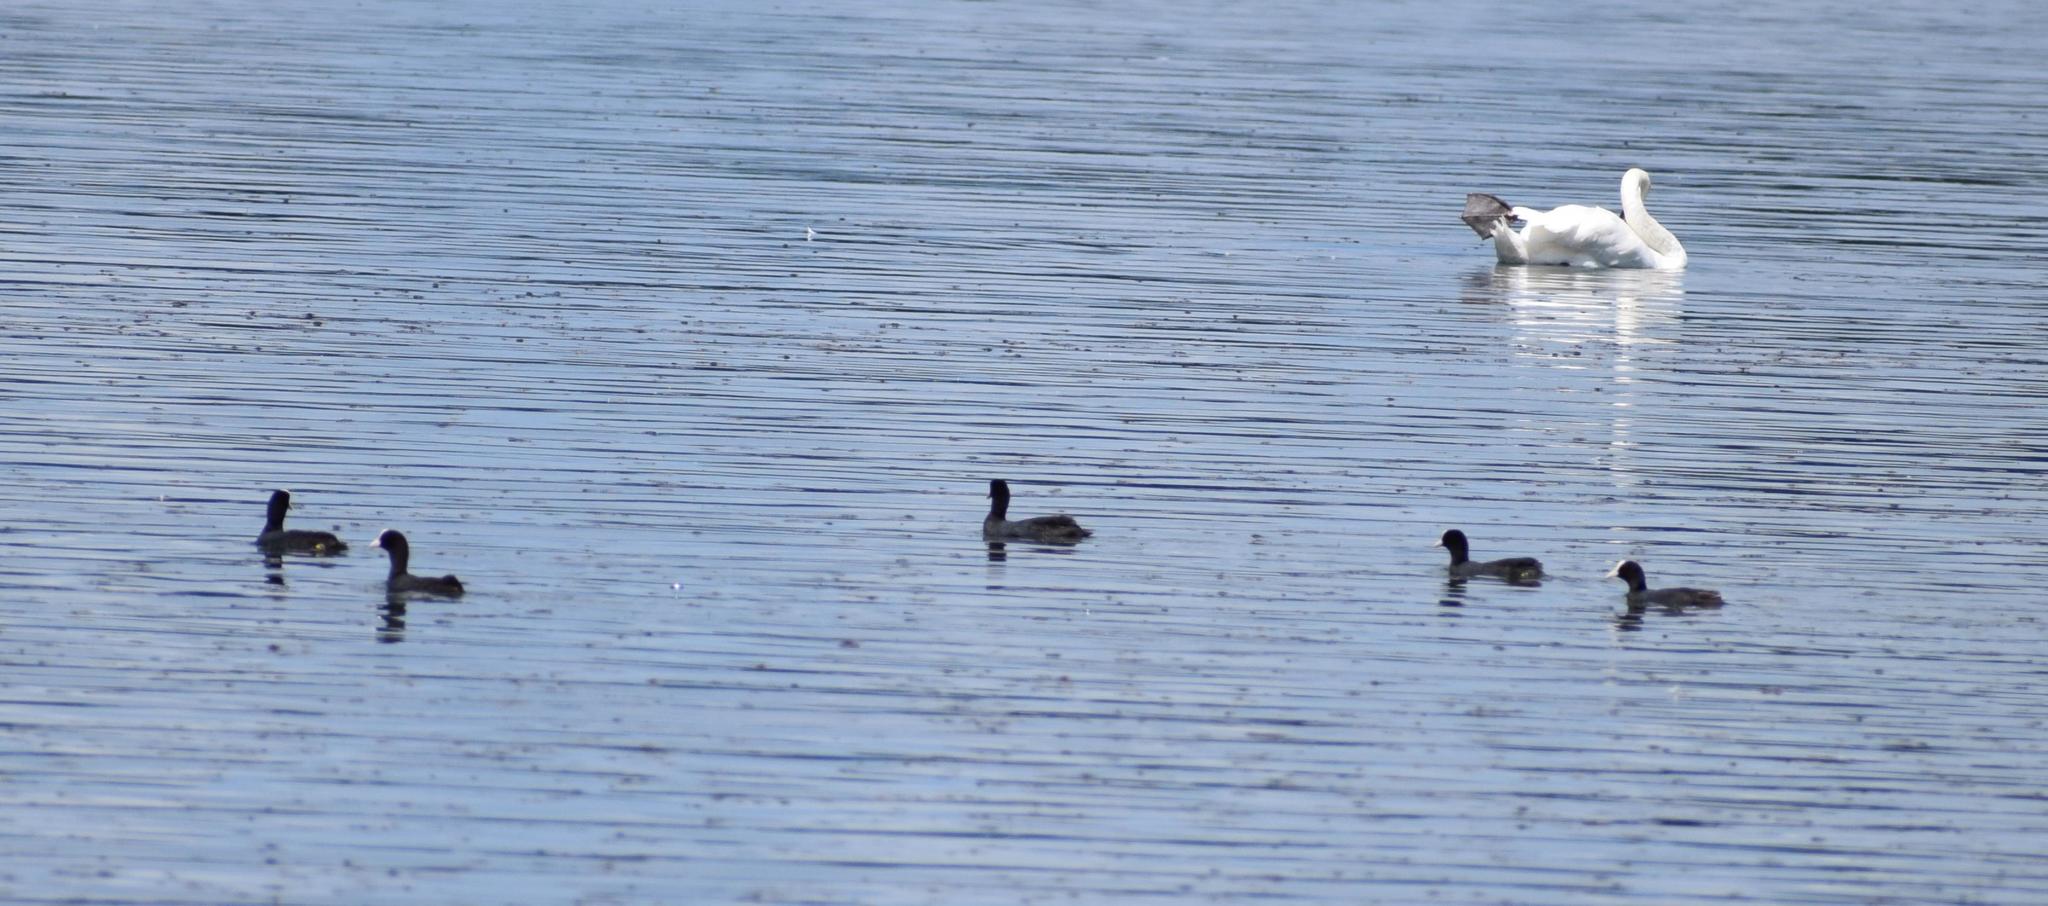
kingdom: Animalia
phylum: Chordata
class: Aves
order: Gruiformes
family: Rallidae
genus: Fulica
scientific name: Fulica atra
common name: Eurasian coot
